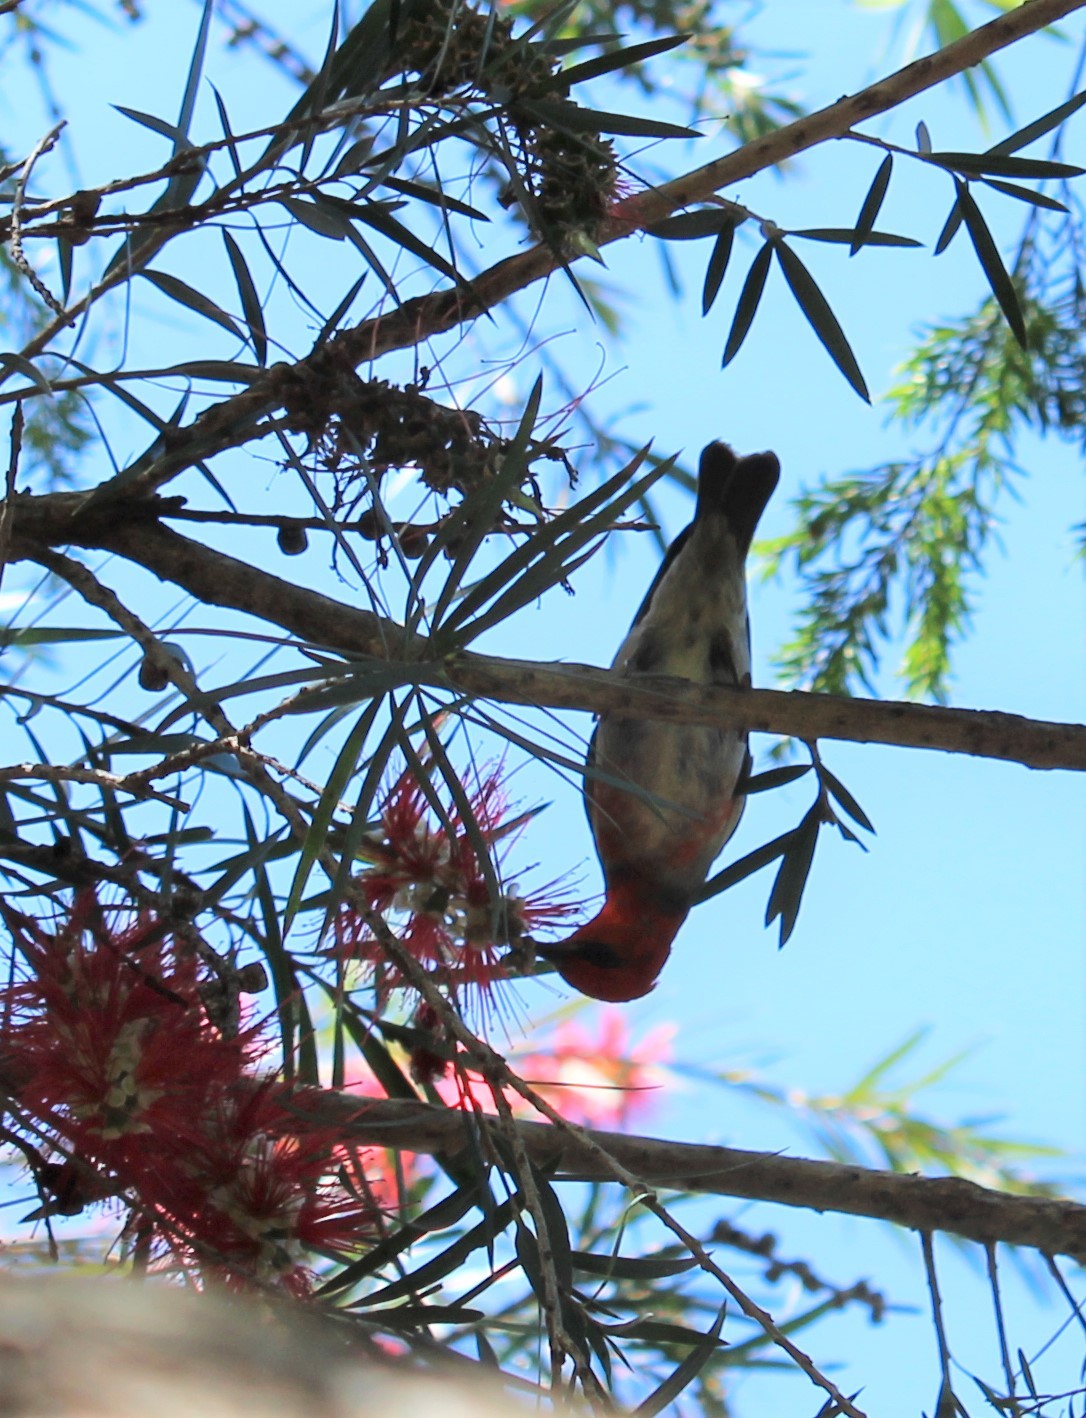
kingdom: Animalia
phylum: Chordata
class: Aves
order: Passeriformes
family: Meliphagidae
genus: Myzomela
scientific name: Myzomela sanguinolenta
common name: Scarlet myzomela
